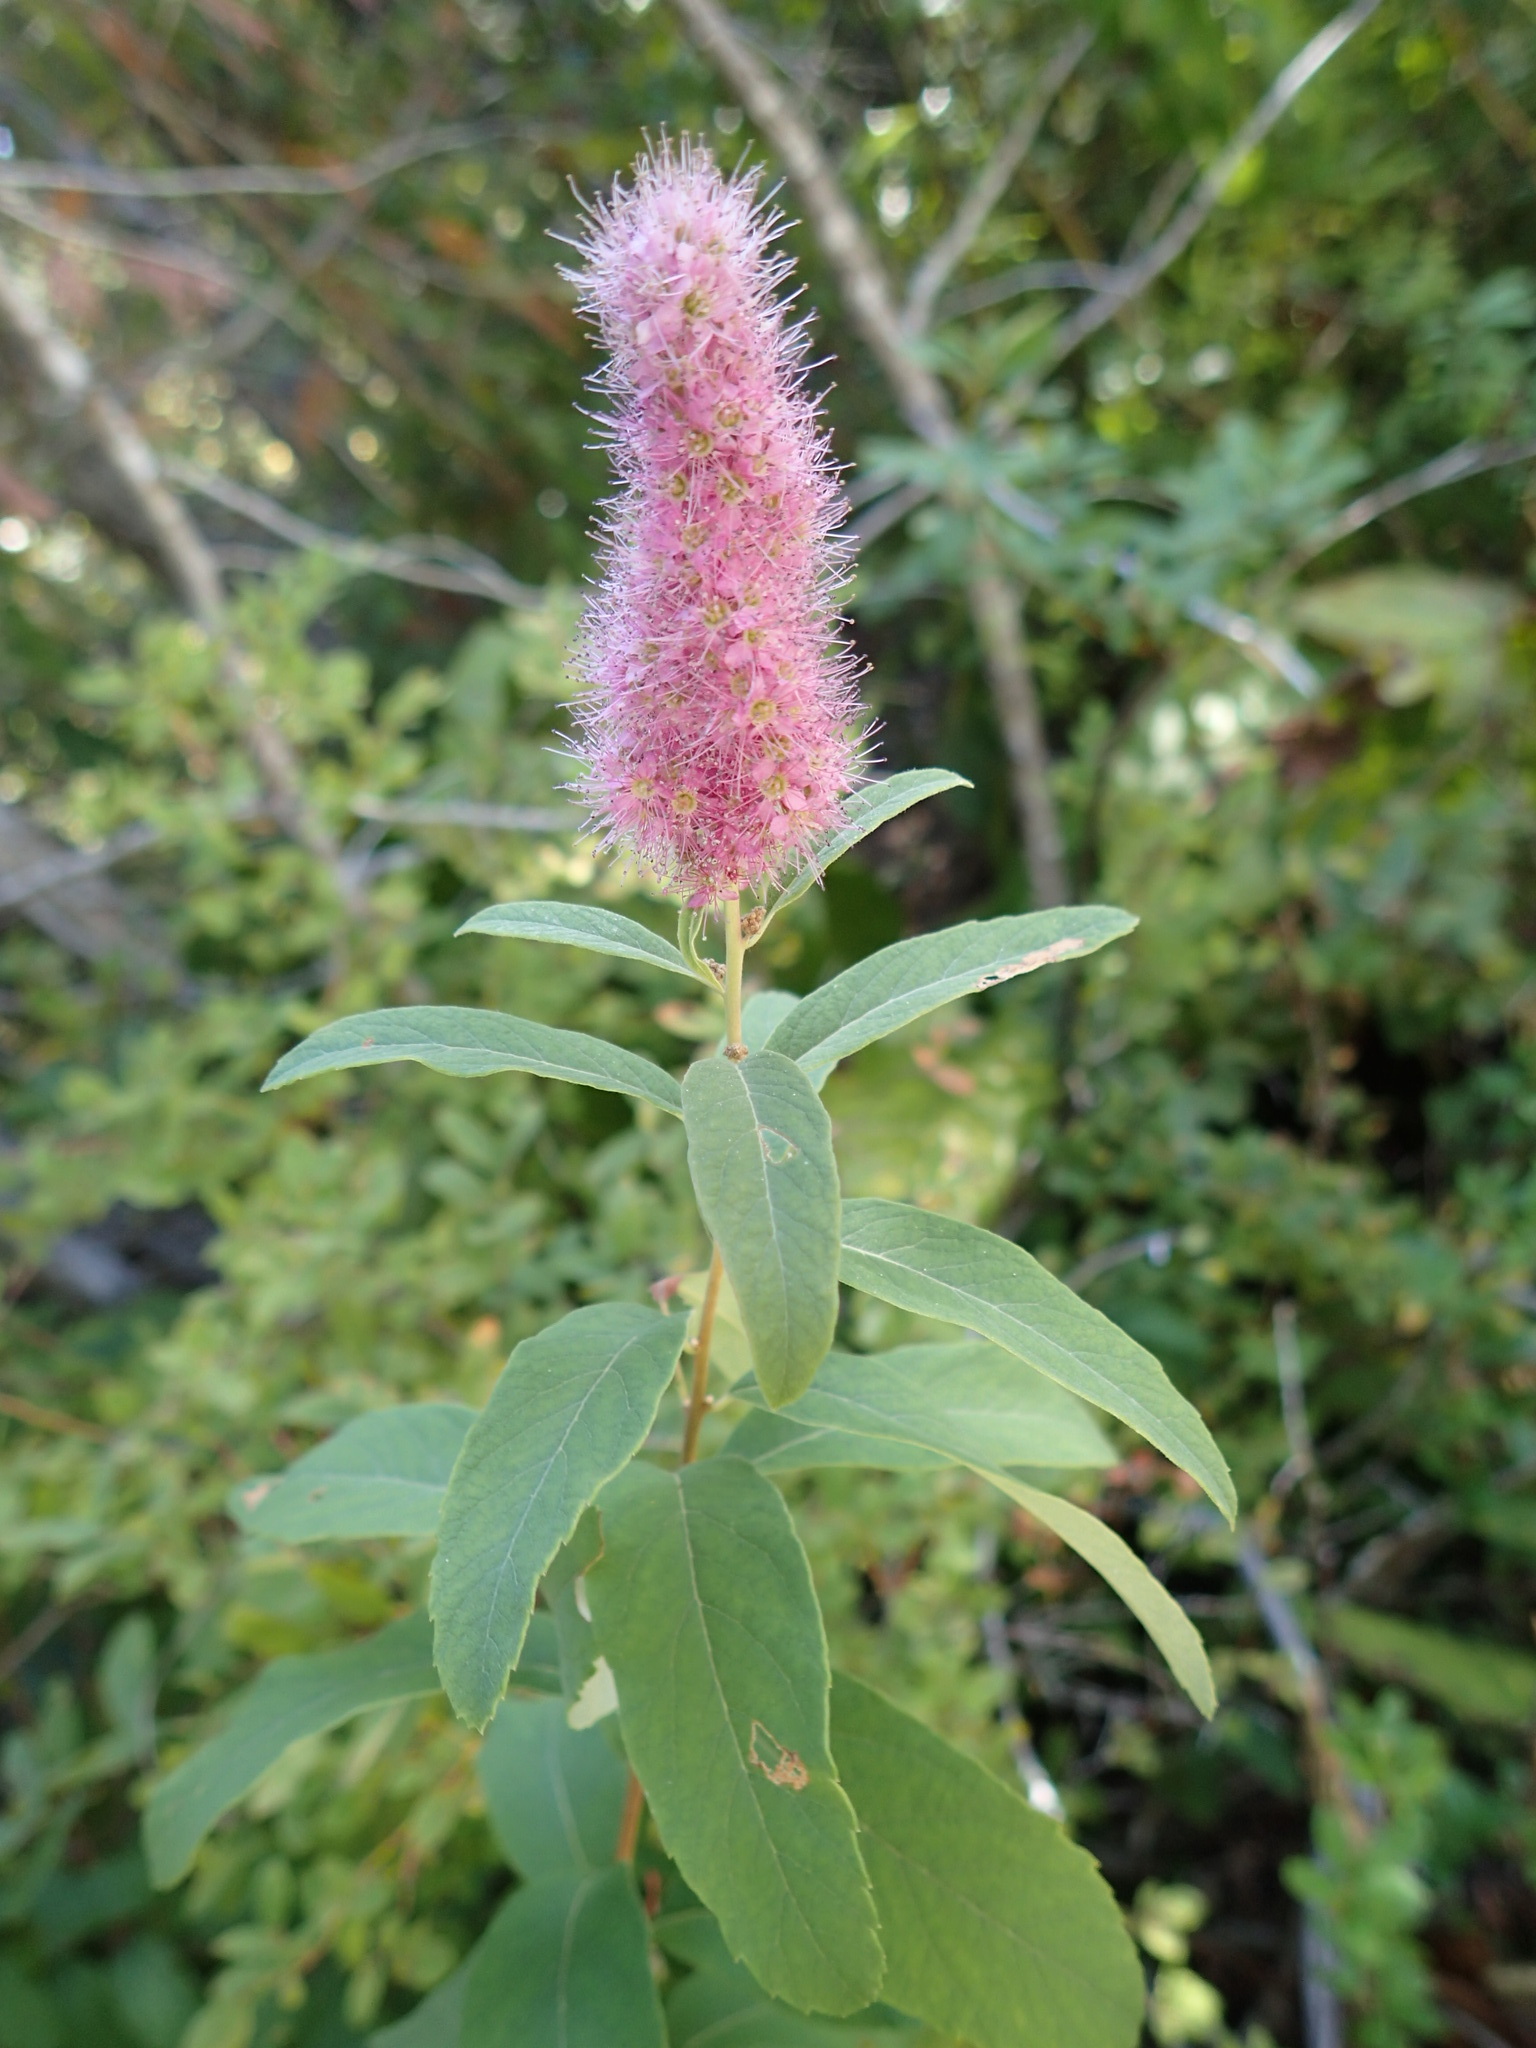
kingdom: Plantae
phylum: Tracheophyta
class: Magnoliopsida
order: Rosales
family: Rosaceae
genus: Spiraea
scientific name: Spiraea douglasii
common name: Steeplebush
